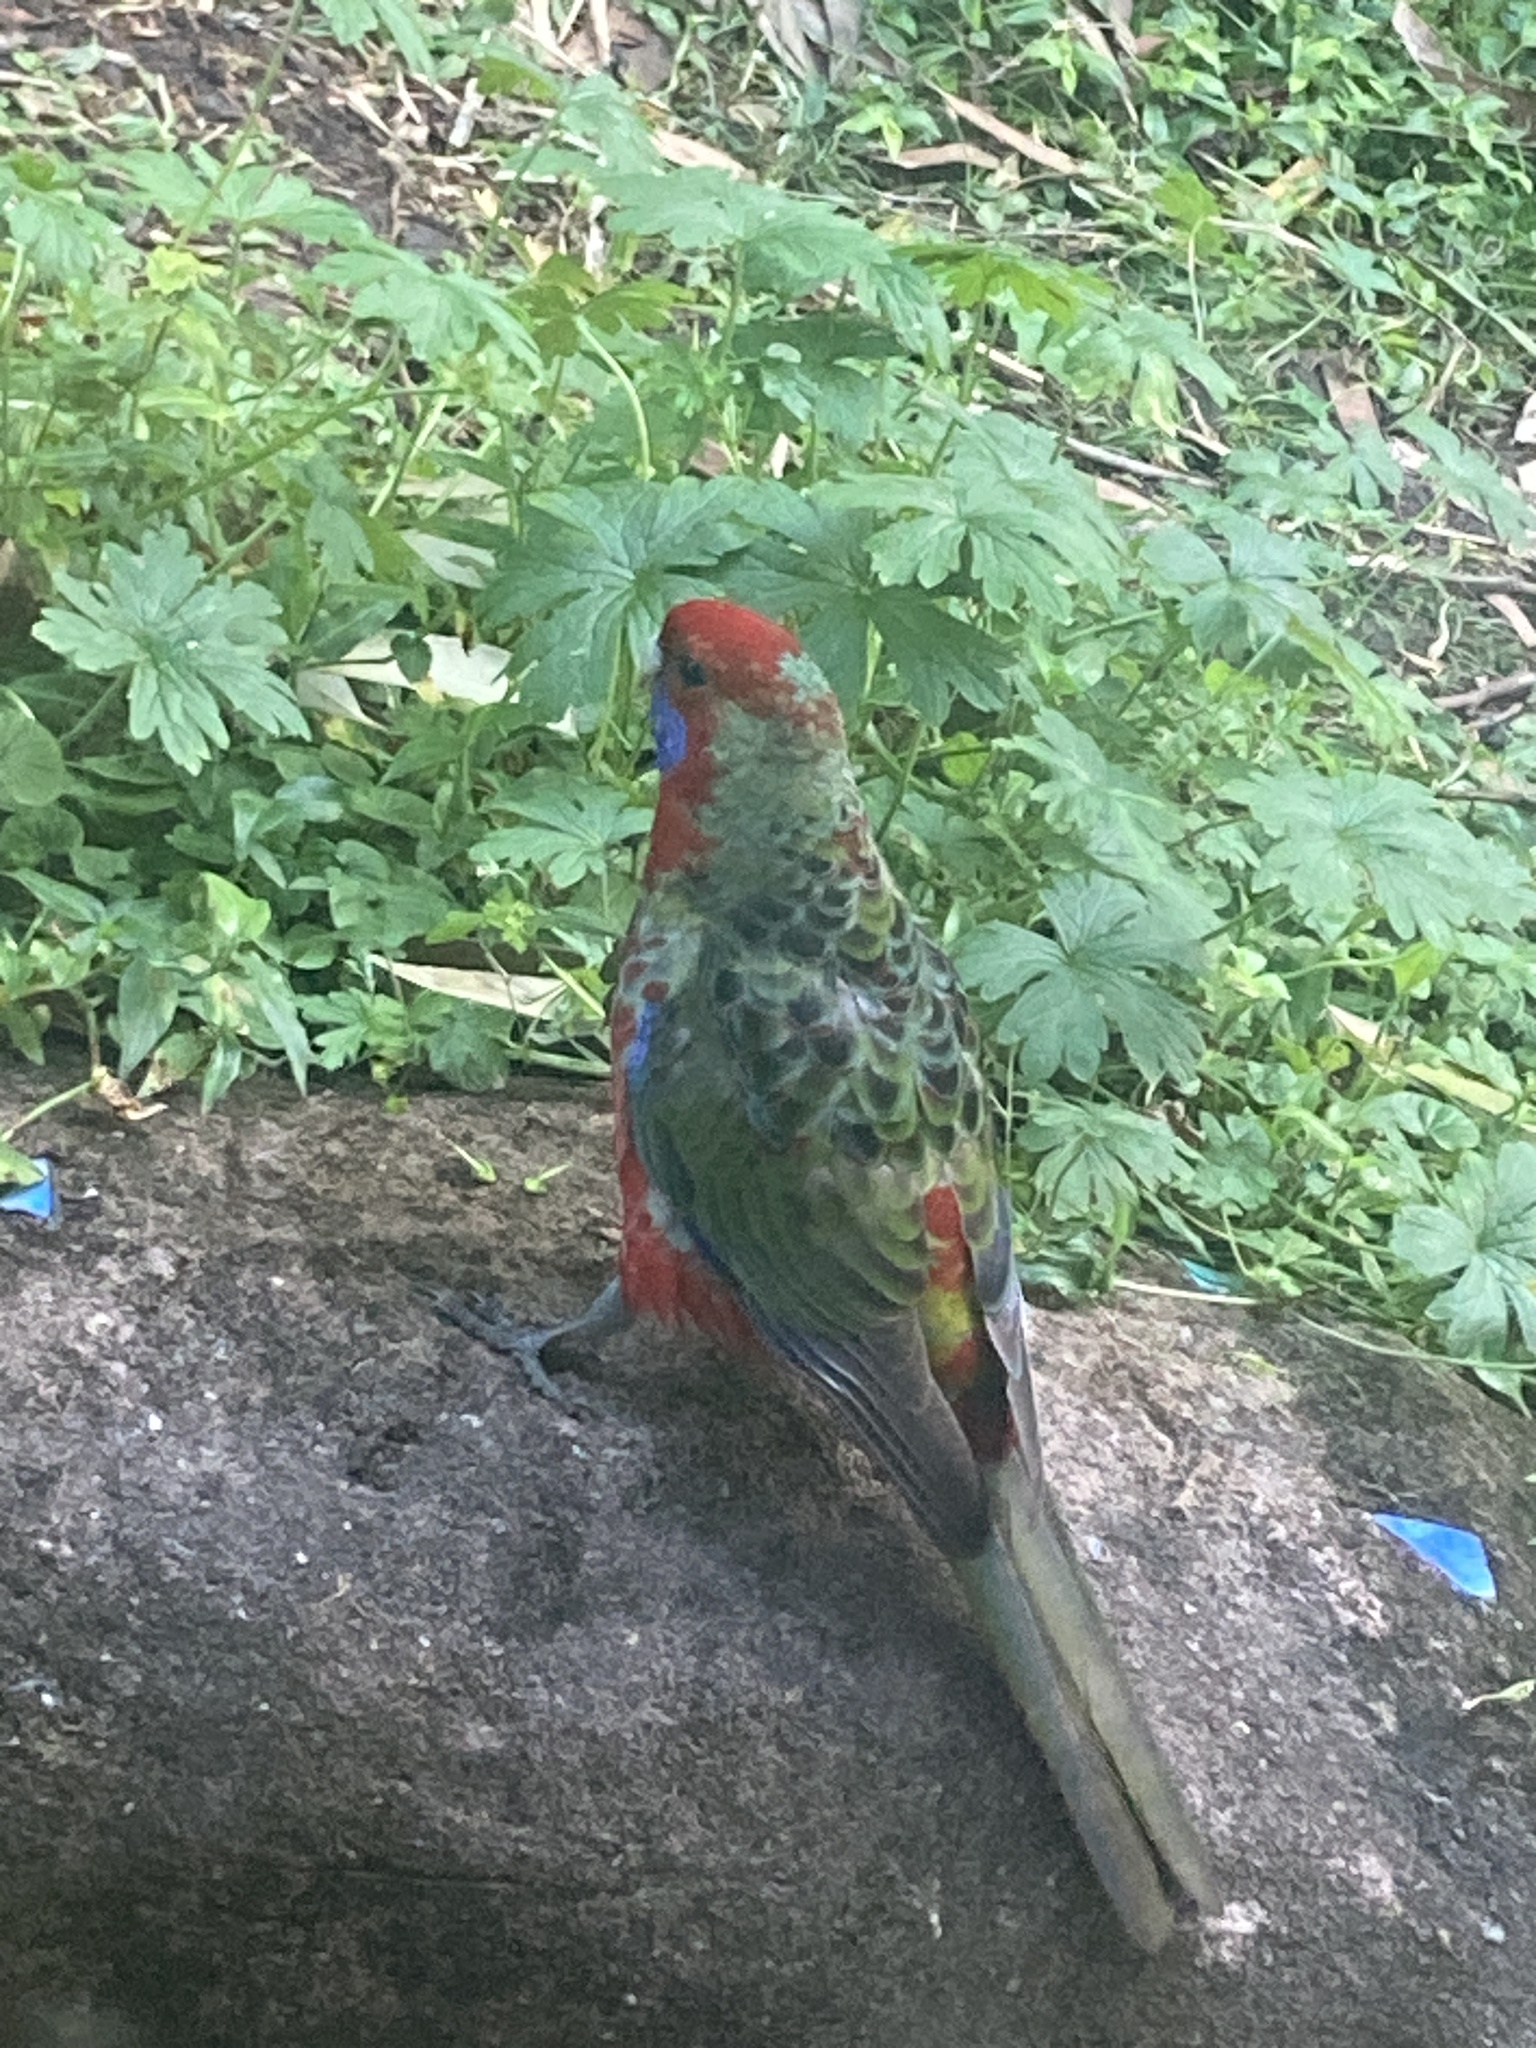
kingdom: Animalia
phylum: Chordata
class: Aves
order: Psittaciformes
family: Psittacidae
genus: Platycercus
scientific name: Platycercus elegans
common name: Crimson rosella
